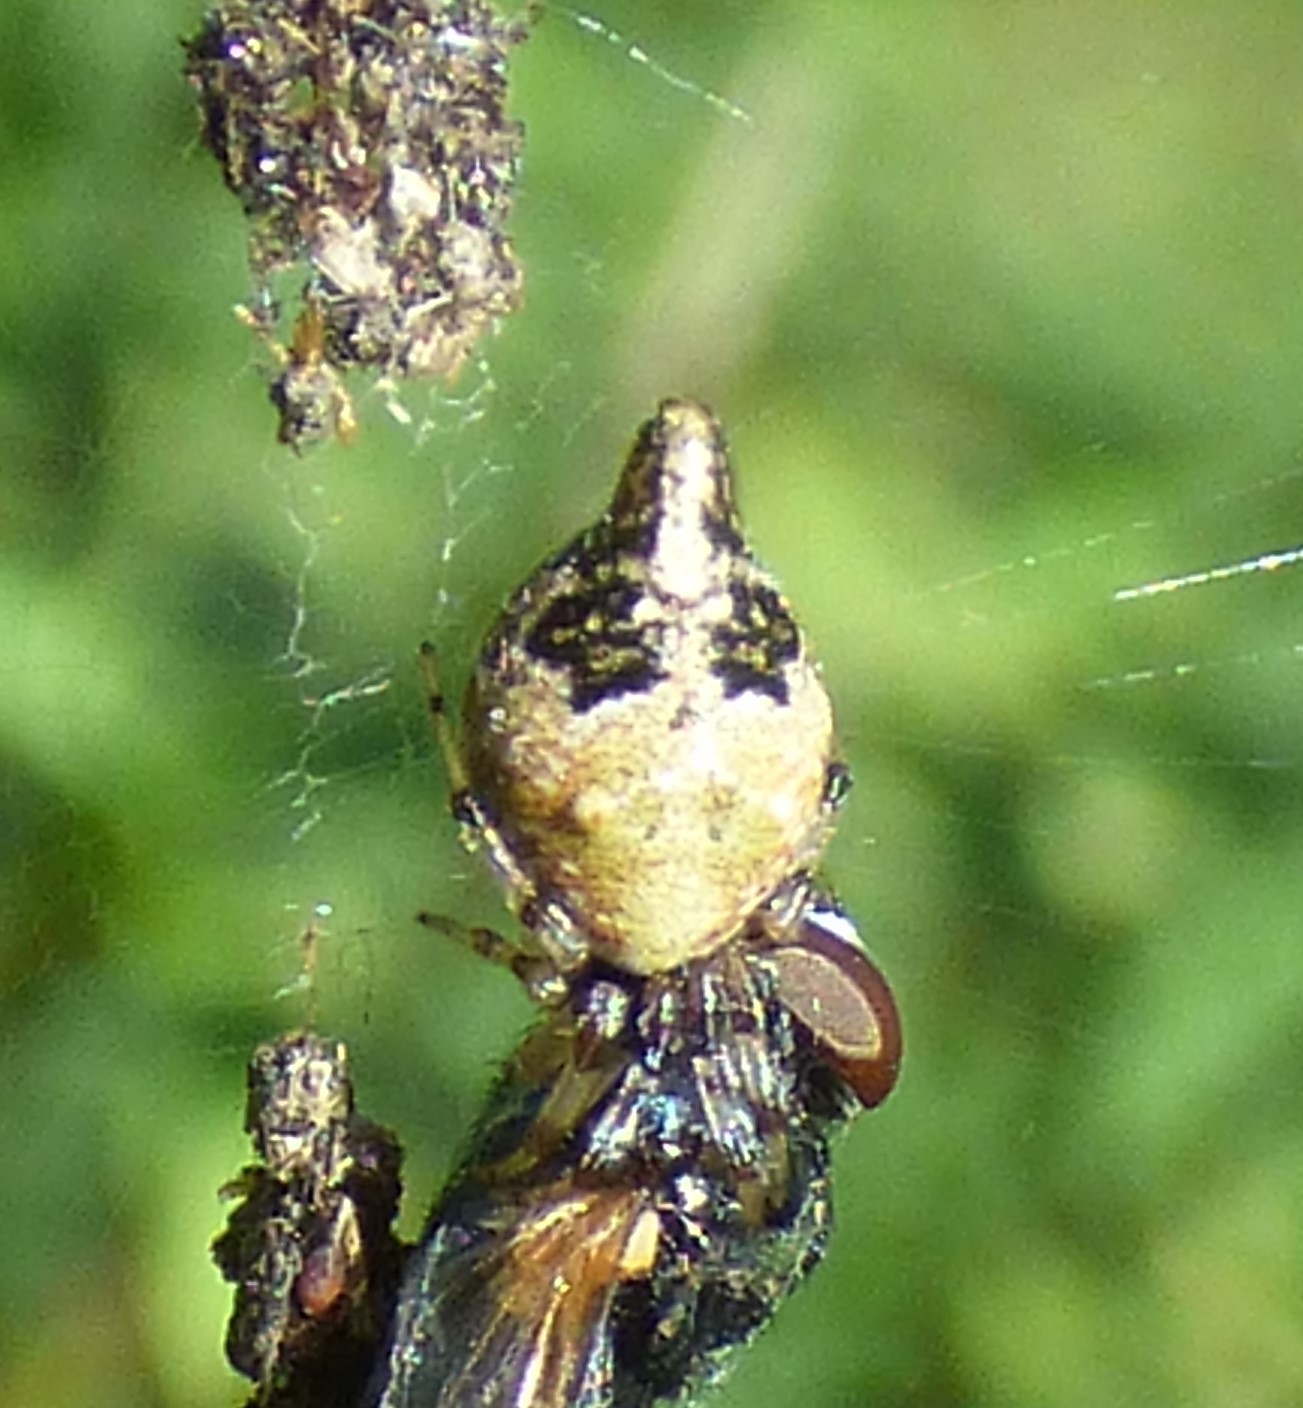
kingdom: Animalia
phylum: Arthropoda
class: Arachnida
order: Araneae
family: Araneidae
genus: Cyclosa
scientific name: Cyclosa turbinata
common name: Orb weavers
